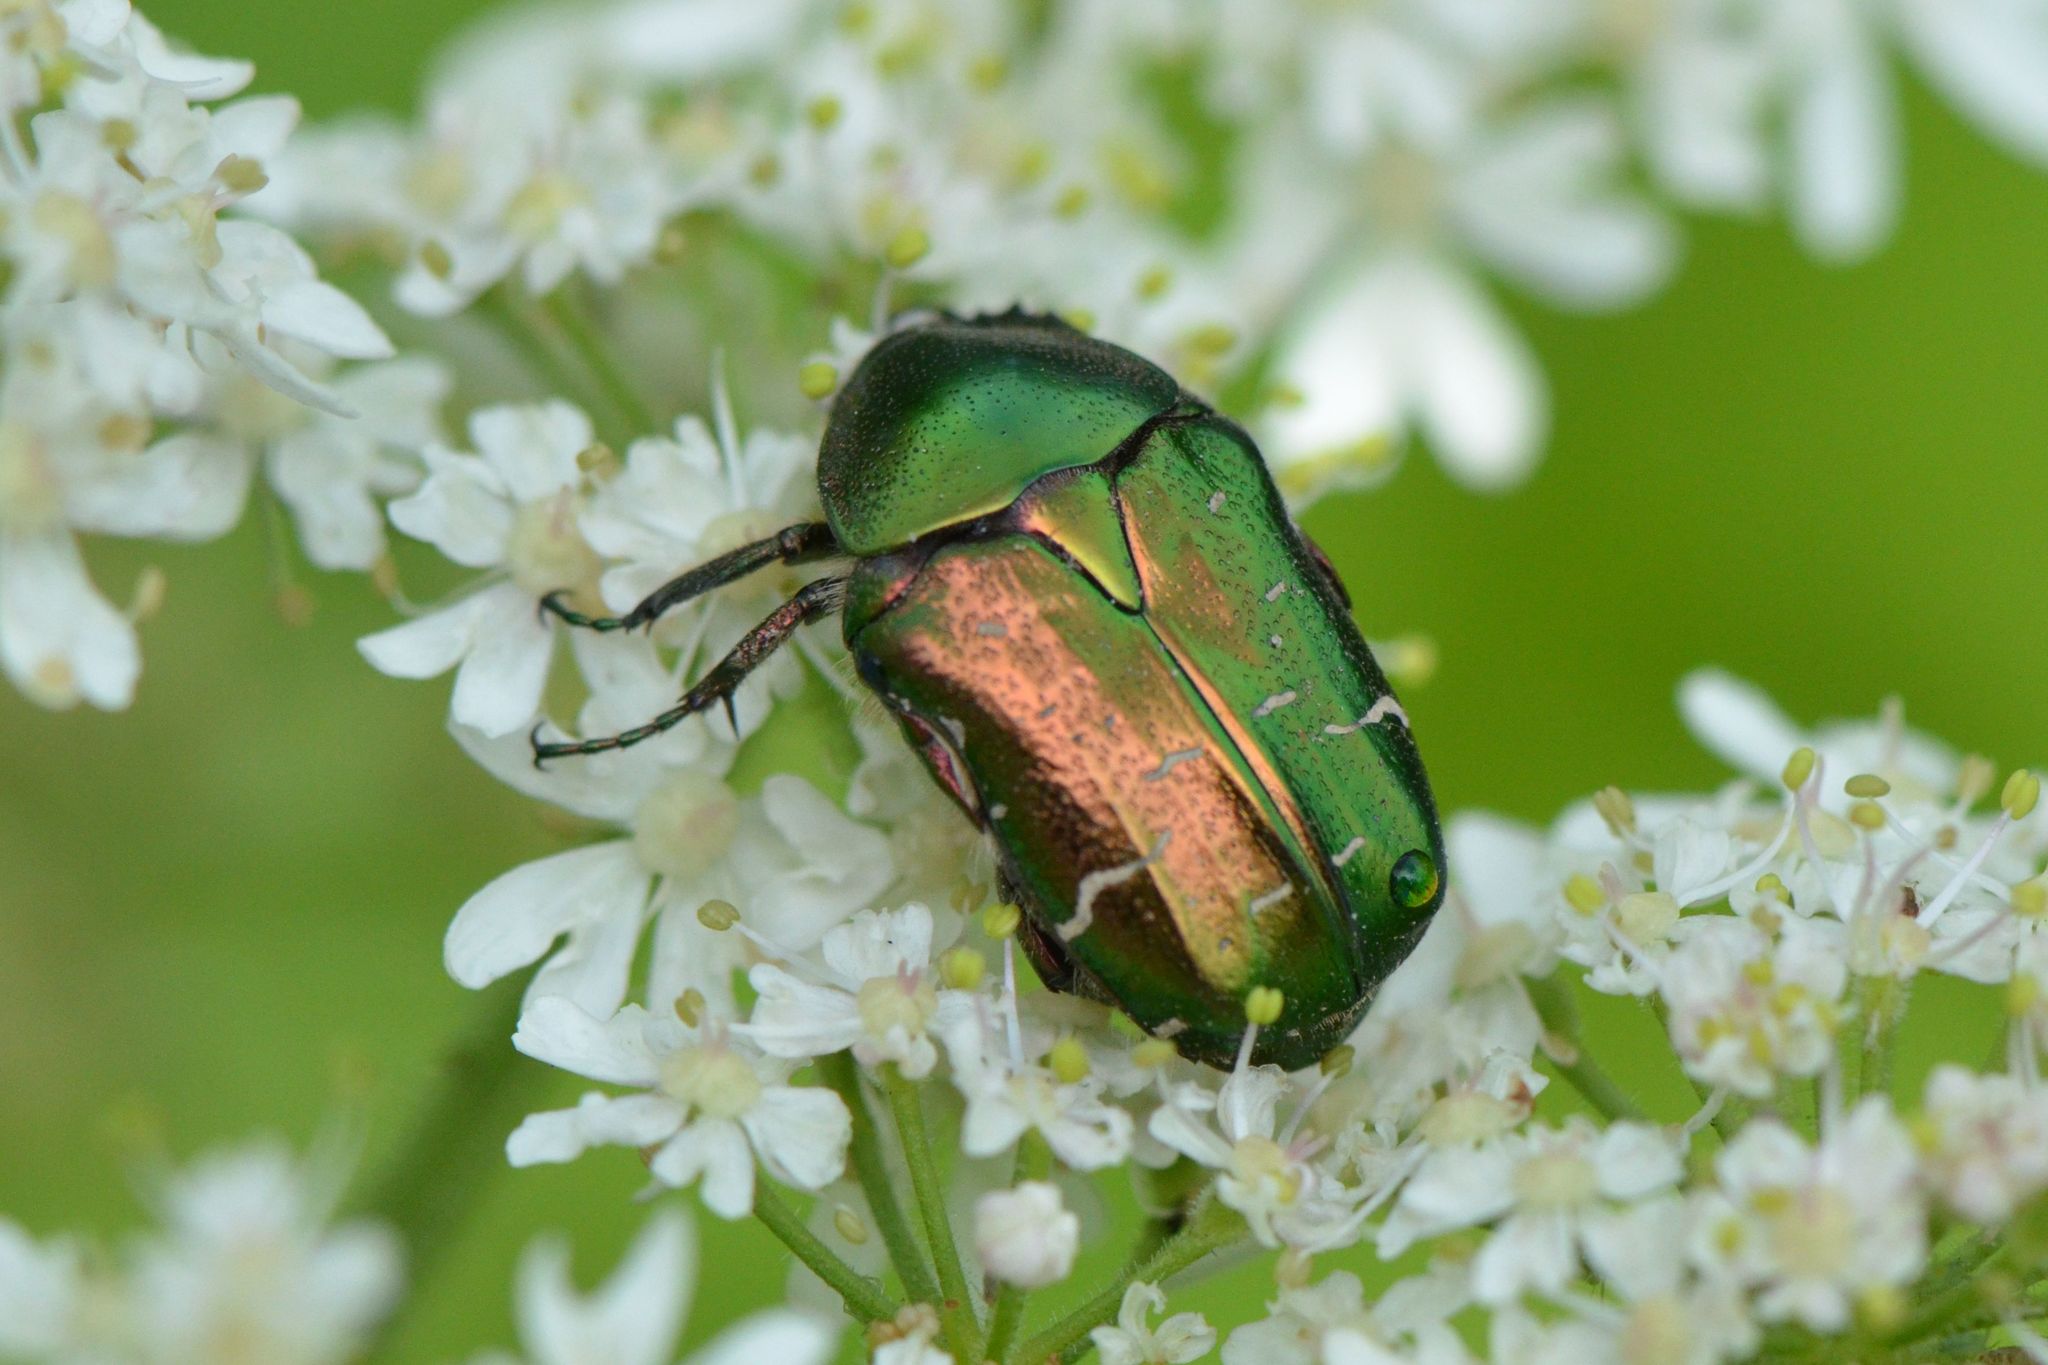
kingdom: Animalia
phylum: Arthropoda
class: Insecta
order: Coleoptera
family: Scarabaeidae
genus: Cetonia
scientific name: Cetonia aurata
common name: Rose chafer
